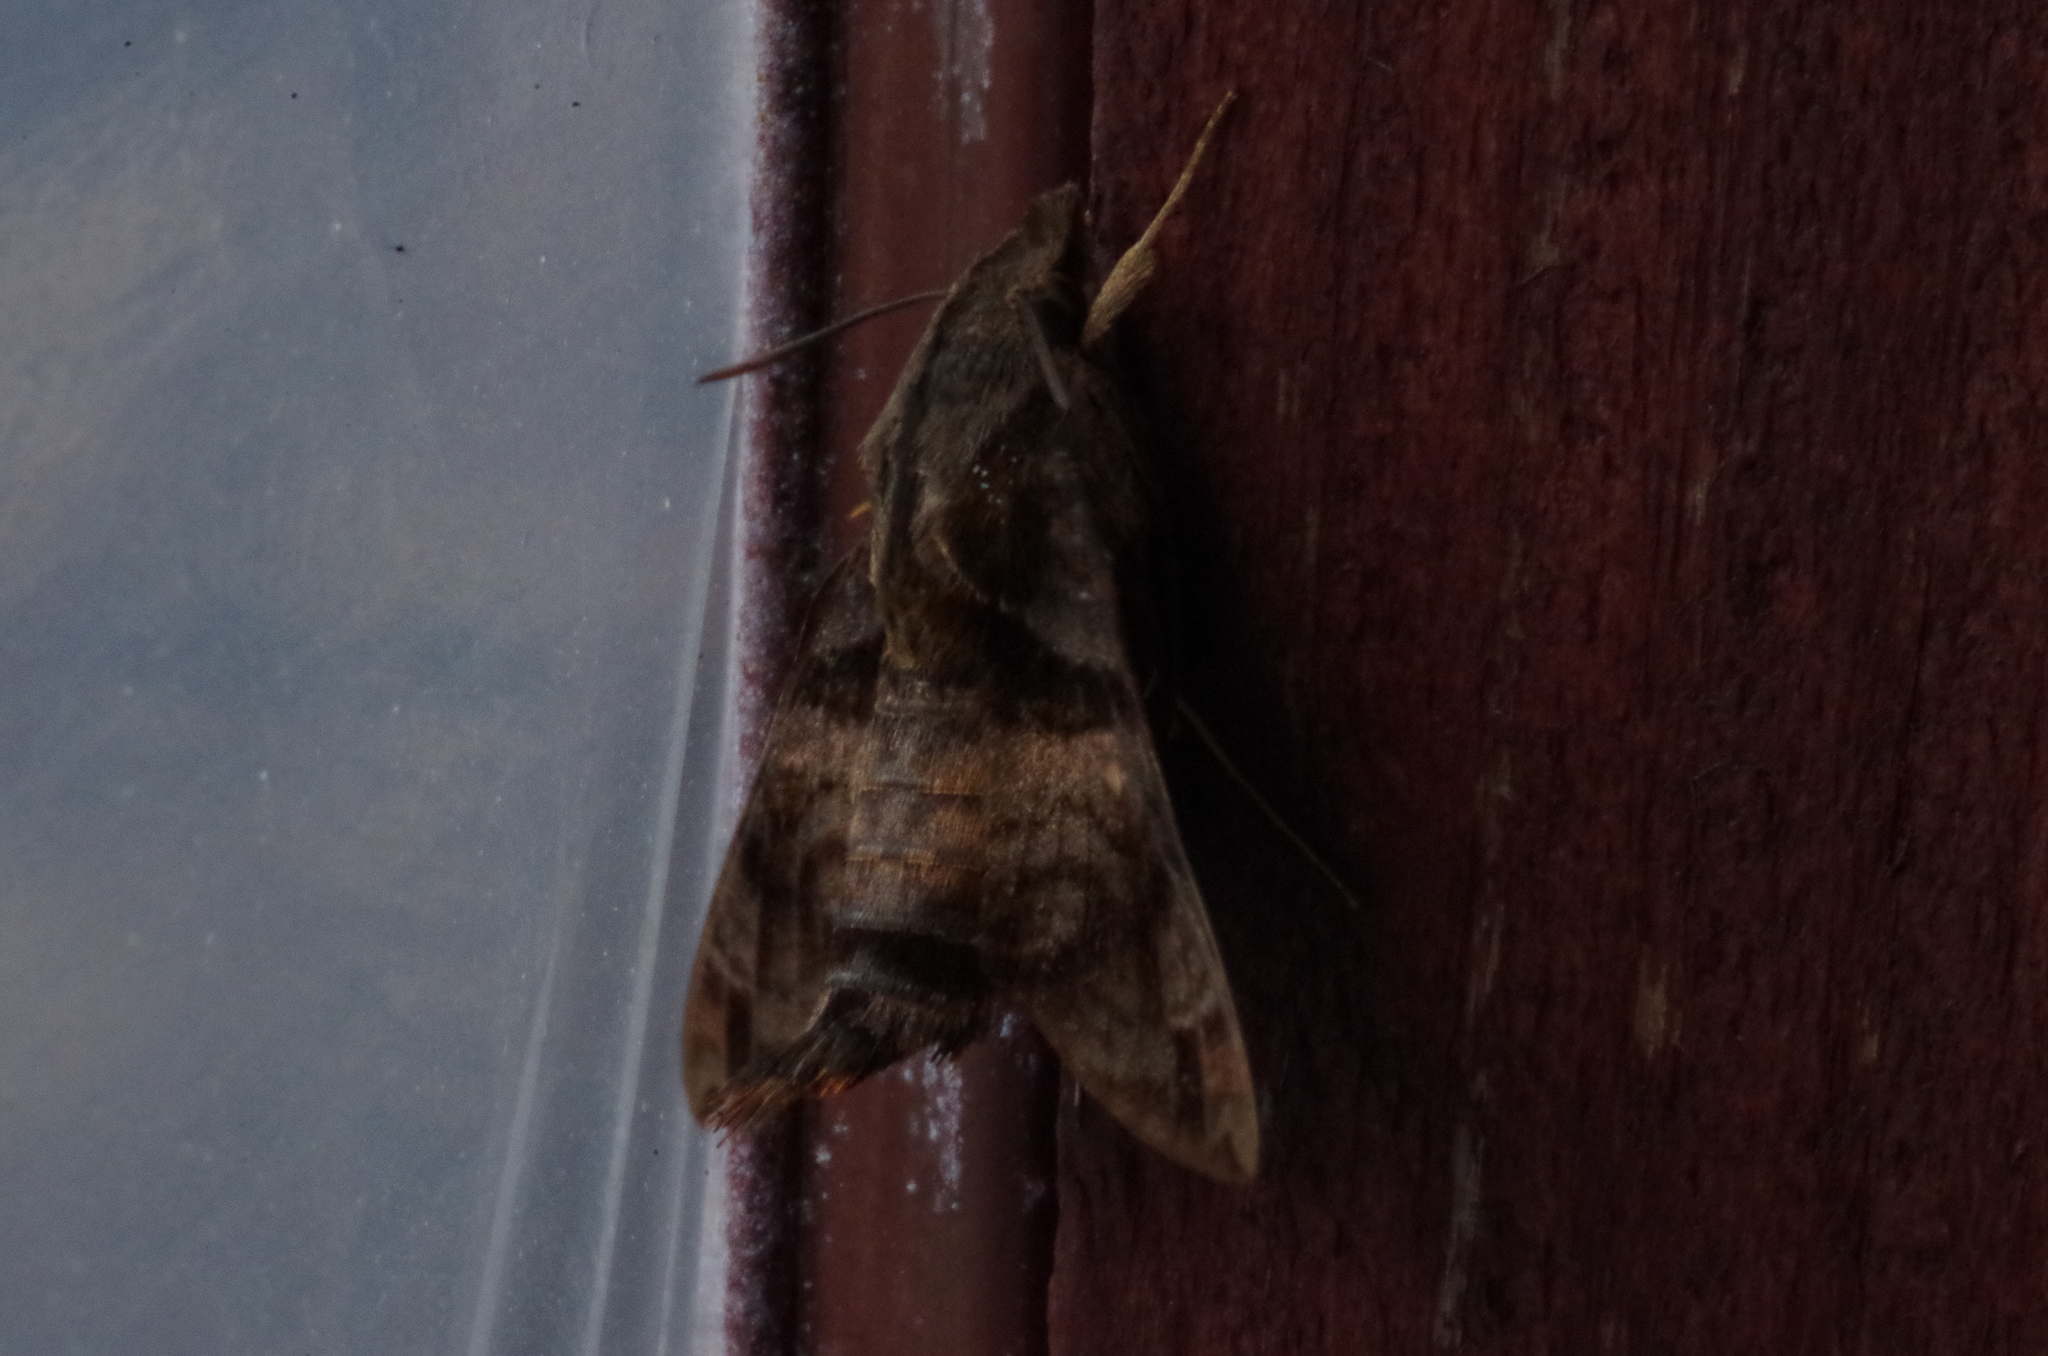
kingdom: Animalia
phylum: Arthropoda
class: Insecta
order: Lepidoptera
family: Sphingidae
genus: Macroglossum
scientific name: Macroglossum pyrrhosticta
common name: Hummingbird hawk moth
